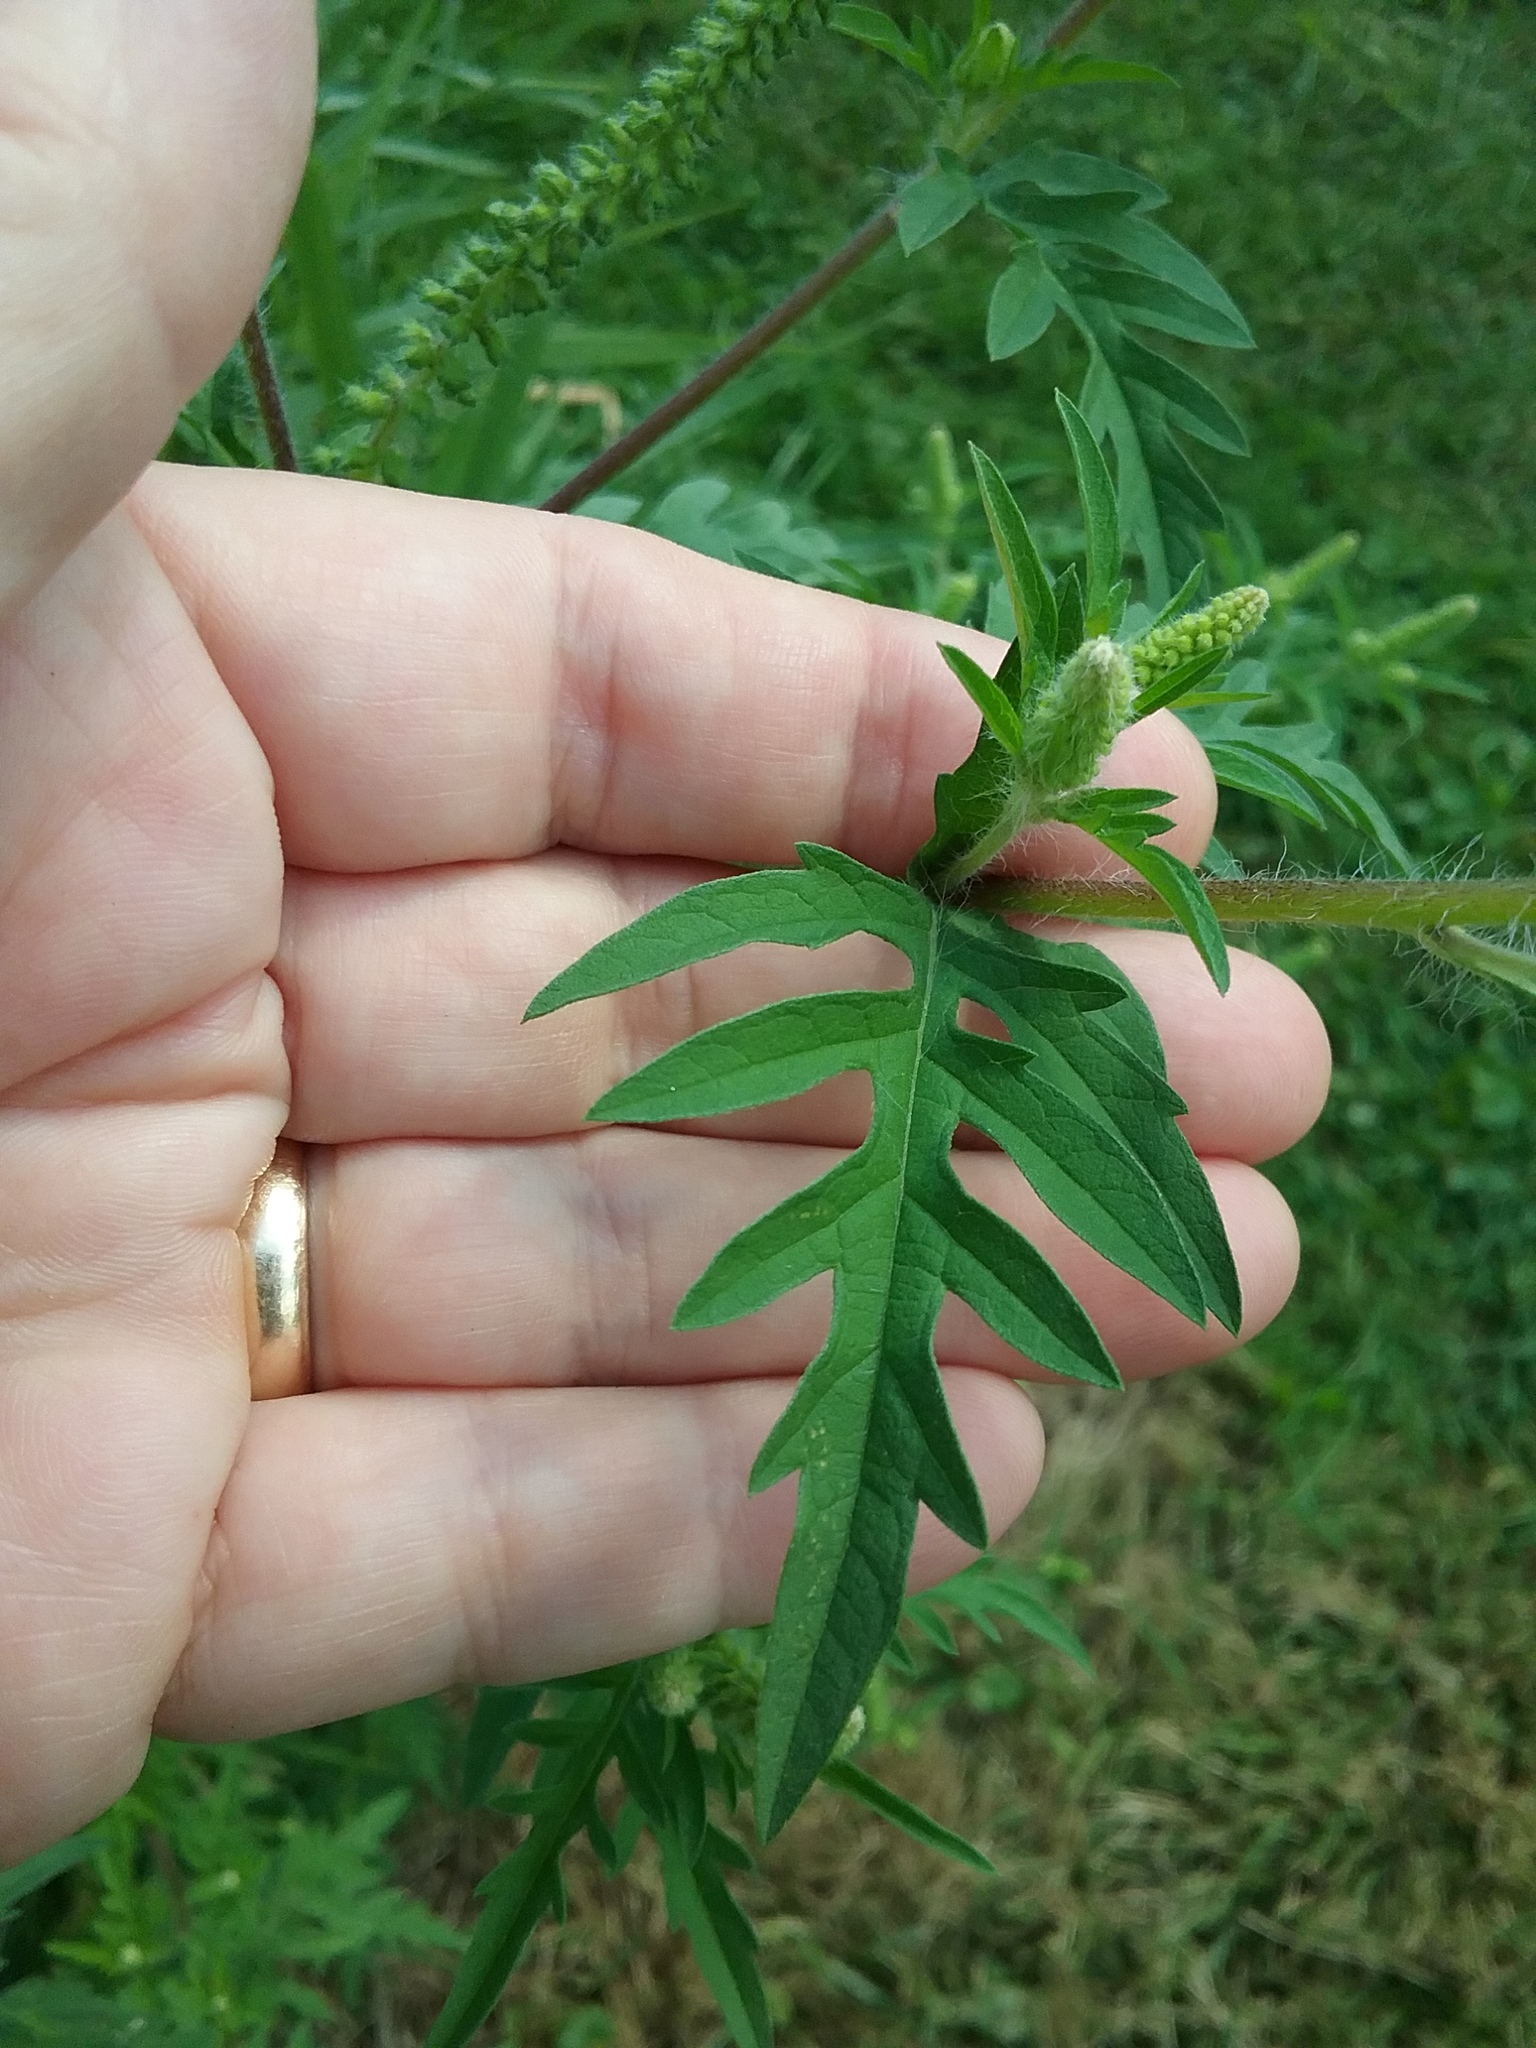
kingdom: Plantae
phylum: Tracheophyta
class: Magnoliopsida
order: Asterales
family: Asteraceae
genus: Ambrosia
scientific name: Ambrosia artemisiifolia
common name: Annual ragweed
